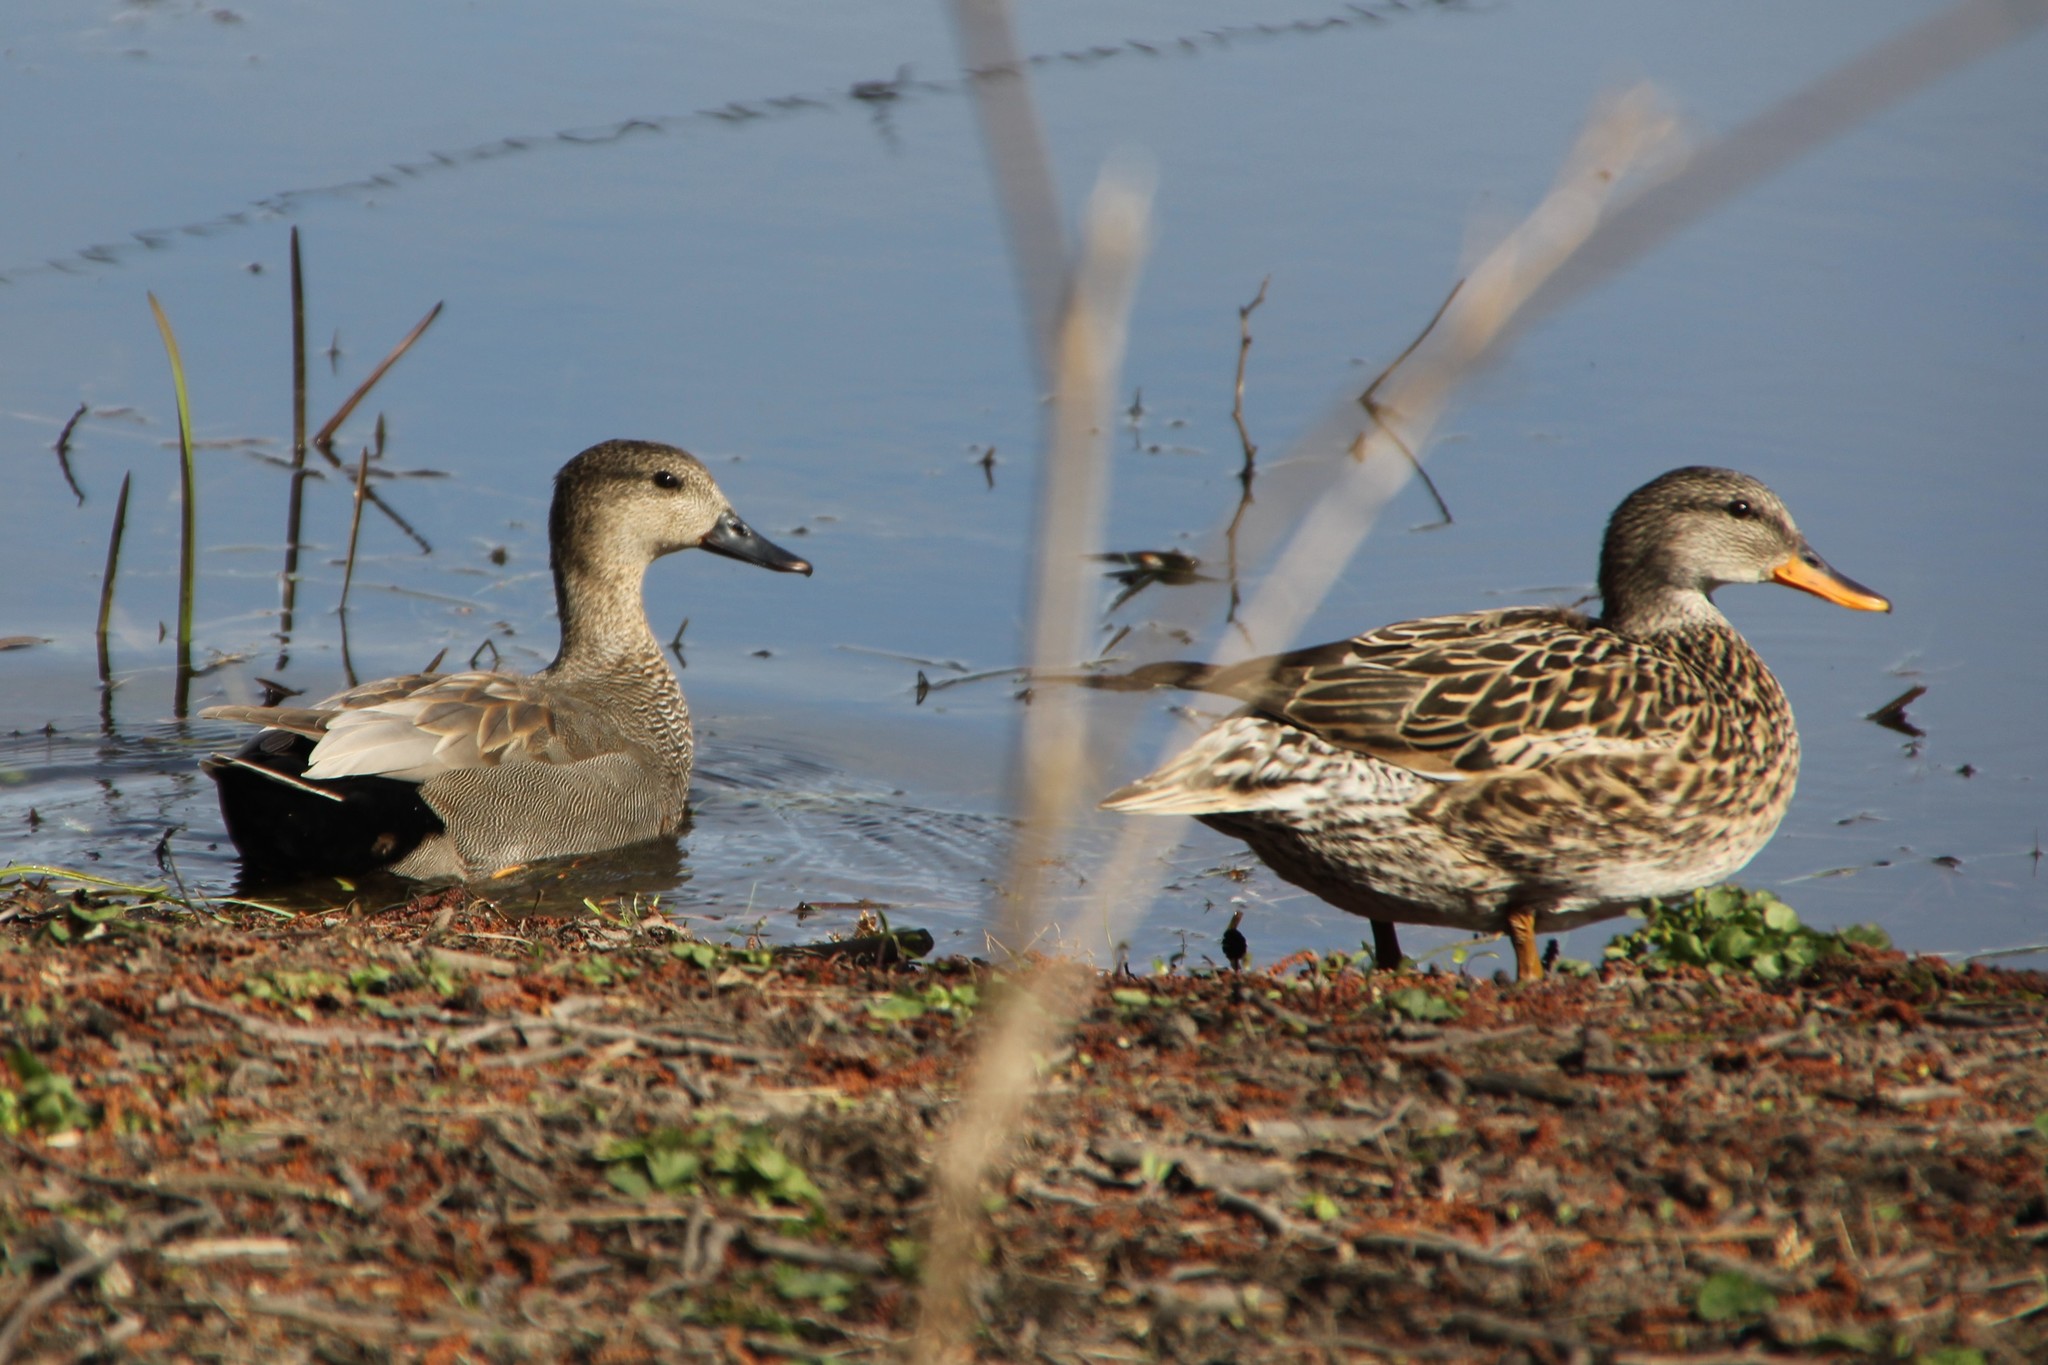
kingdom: Animalia
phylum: Chordata
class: Aves
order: Anseriformes
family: Anatidae
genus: Mareca
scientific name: Mareca strepera
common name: Gadwall
